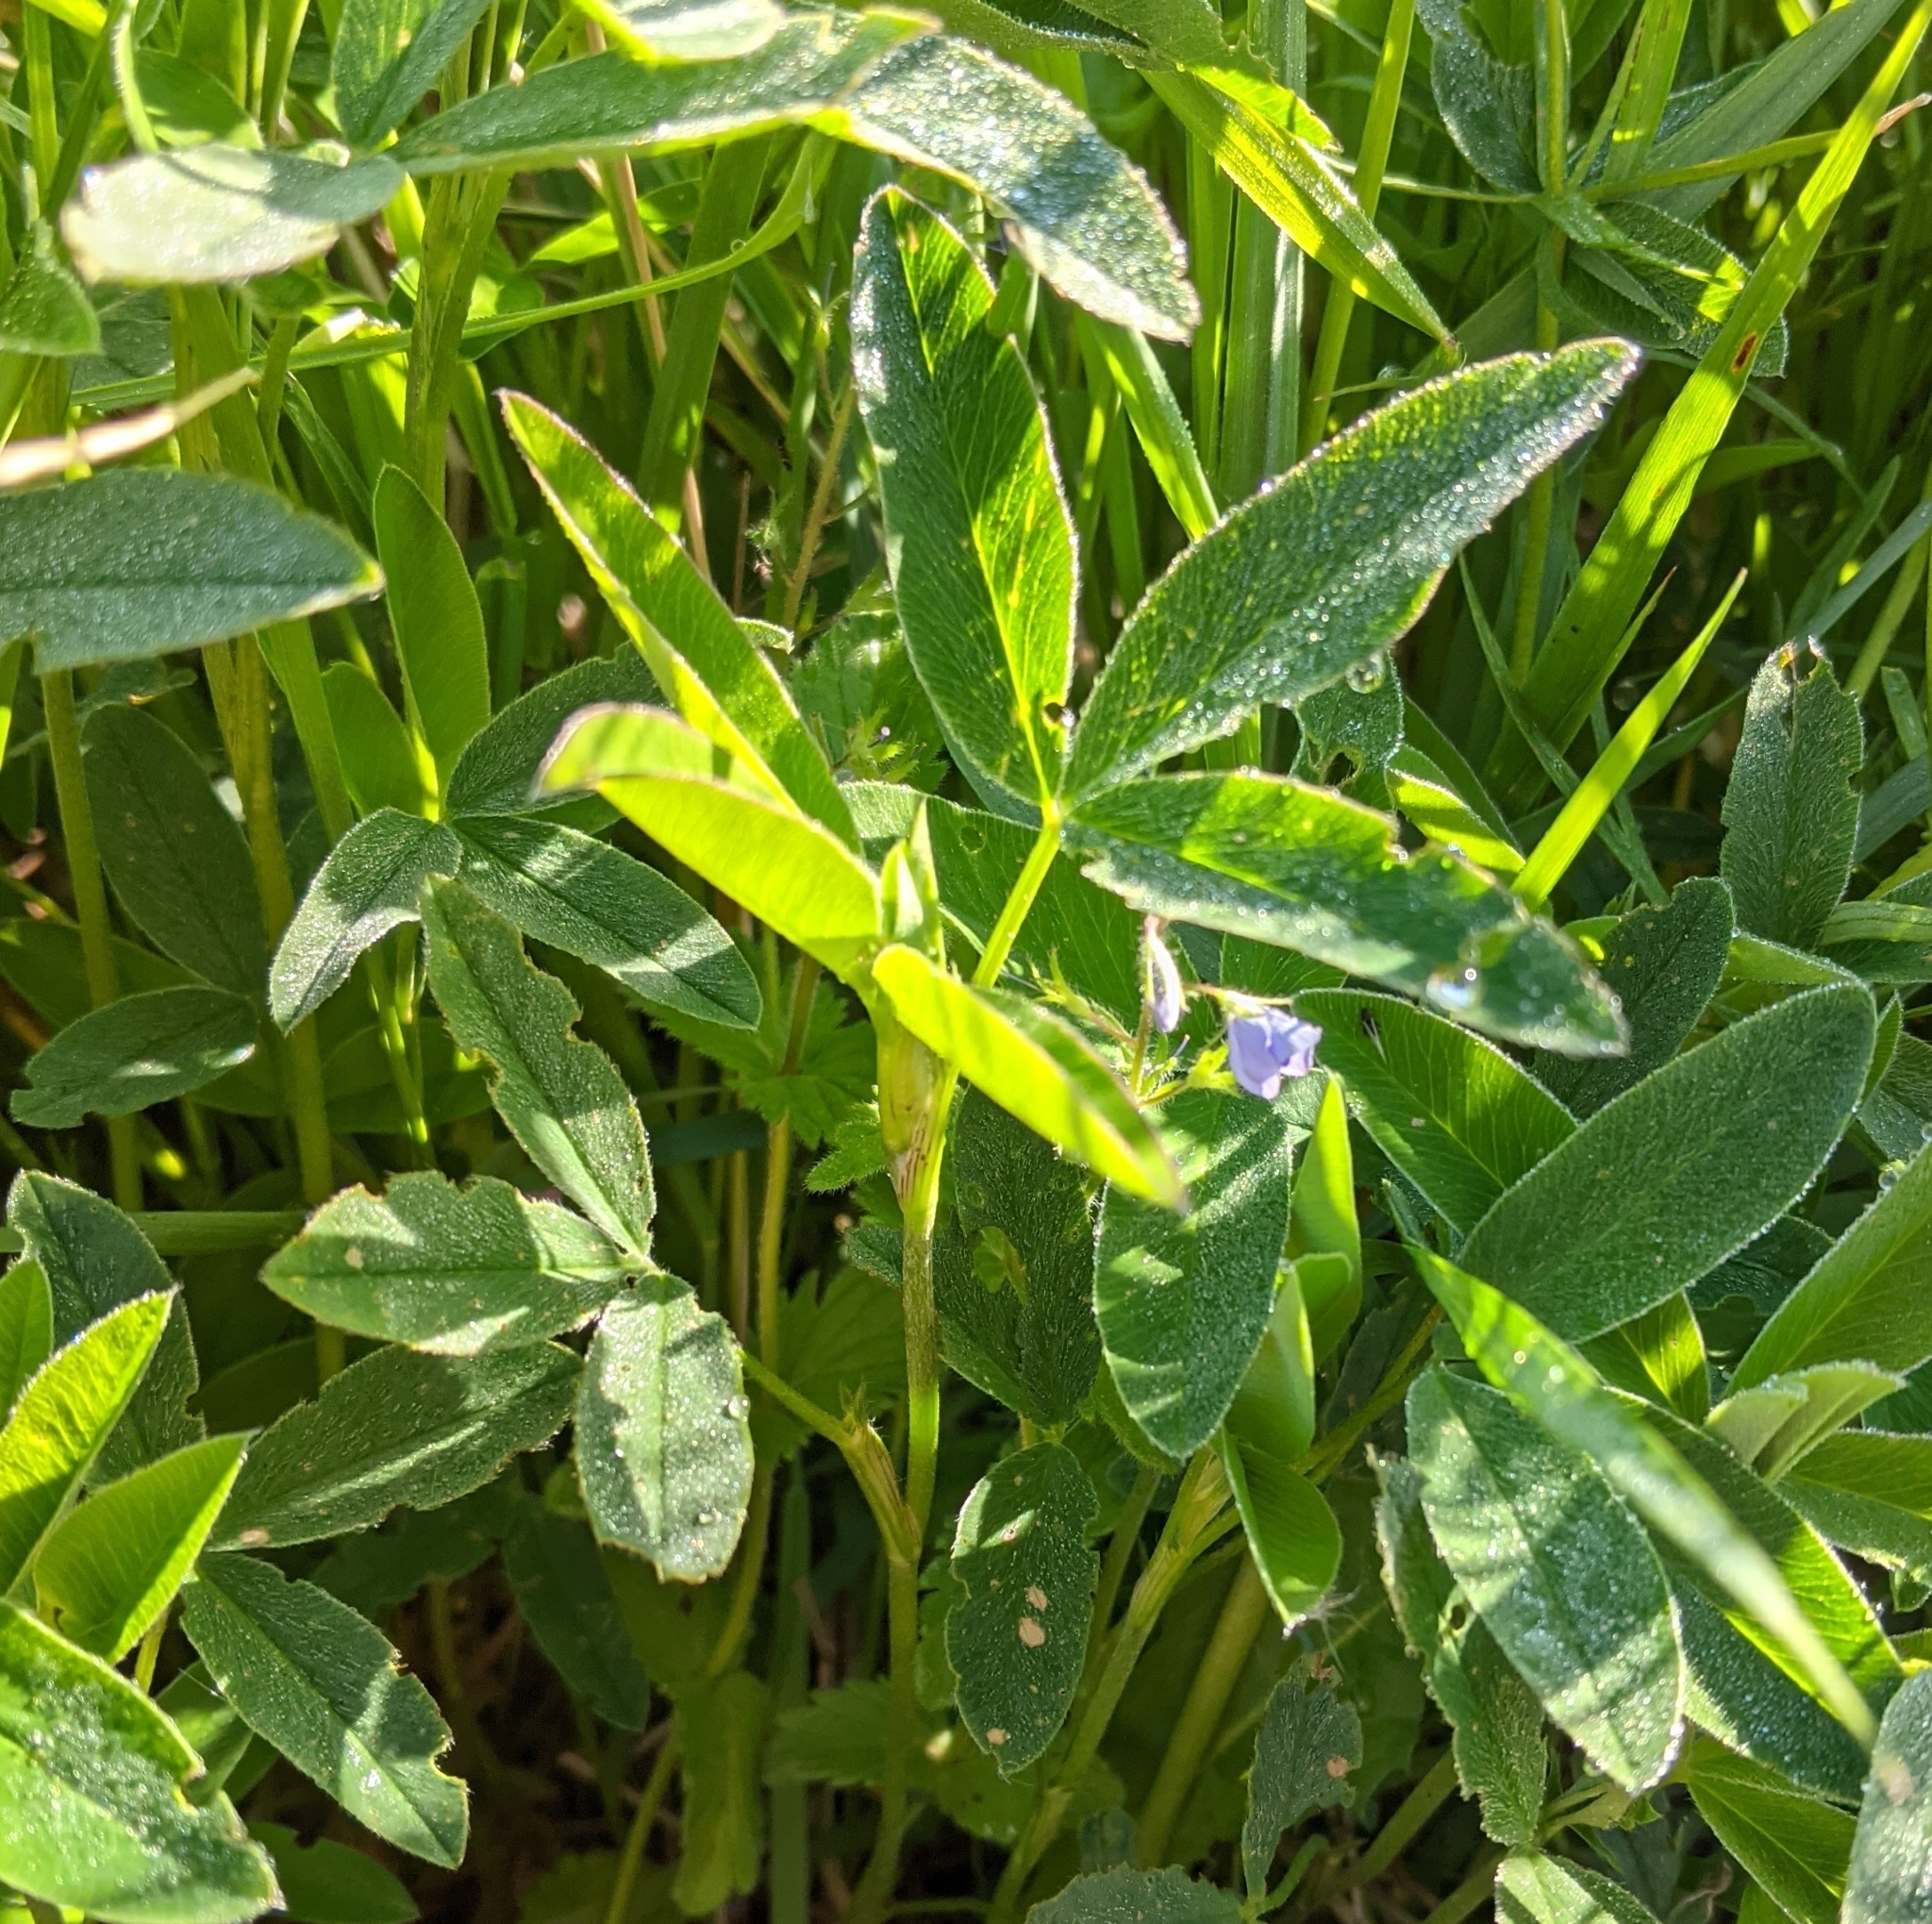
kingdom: Plantae
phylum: Tracheophyta
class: Magnoliopsida
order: Fabales
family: Fabaceae
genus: Trifolium
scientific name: Trifolium medium
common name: Zigzag clover
